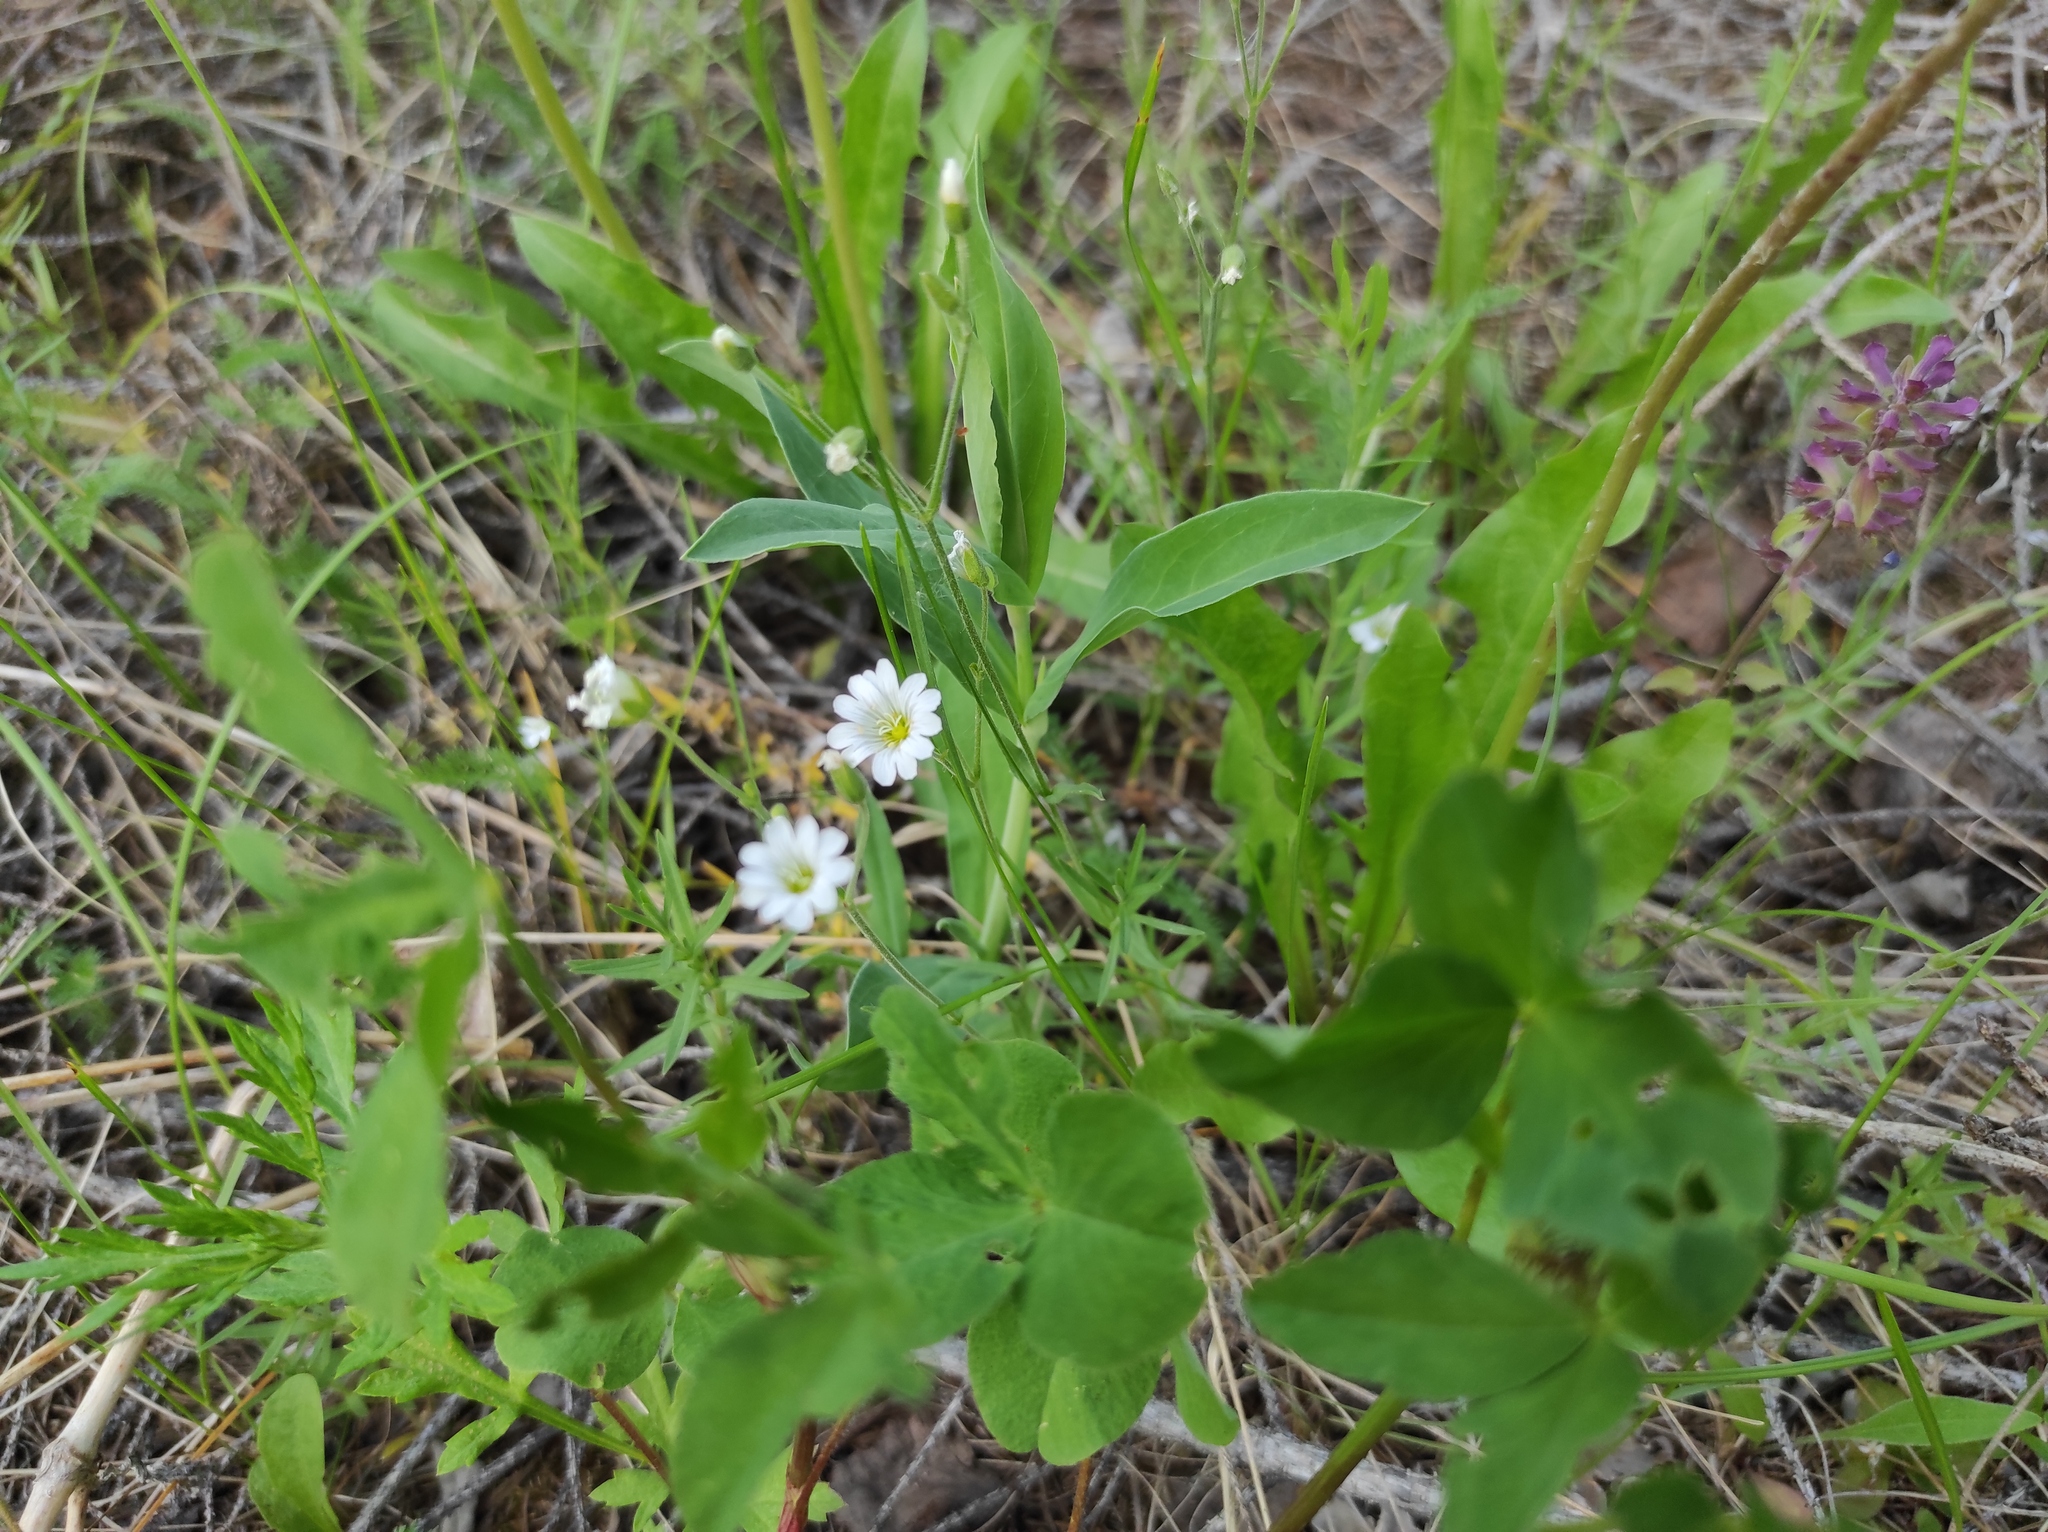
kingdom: Plantae
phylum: Tracheophyta
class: Magnoliopsida
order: Caryophyllales
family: Caryophyllaceae
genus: Silene
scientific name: Silene vulgaris
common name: Bladder campion
